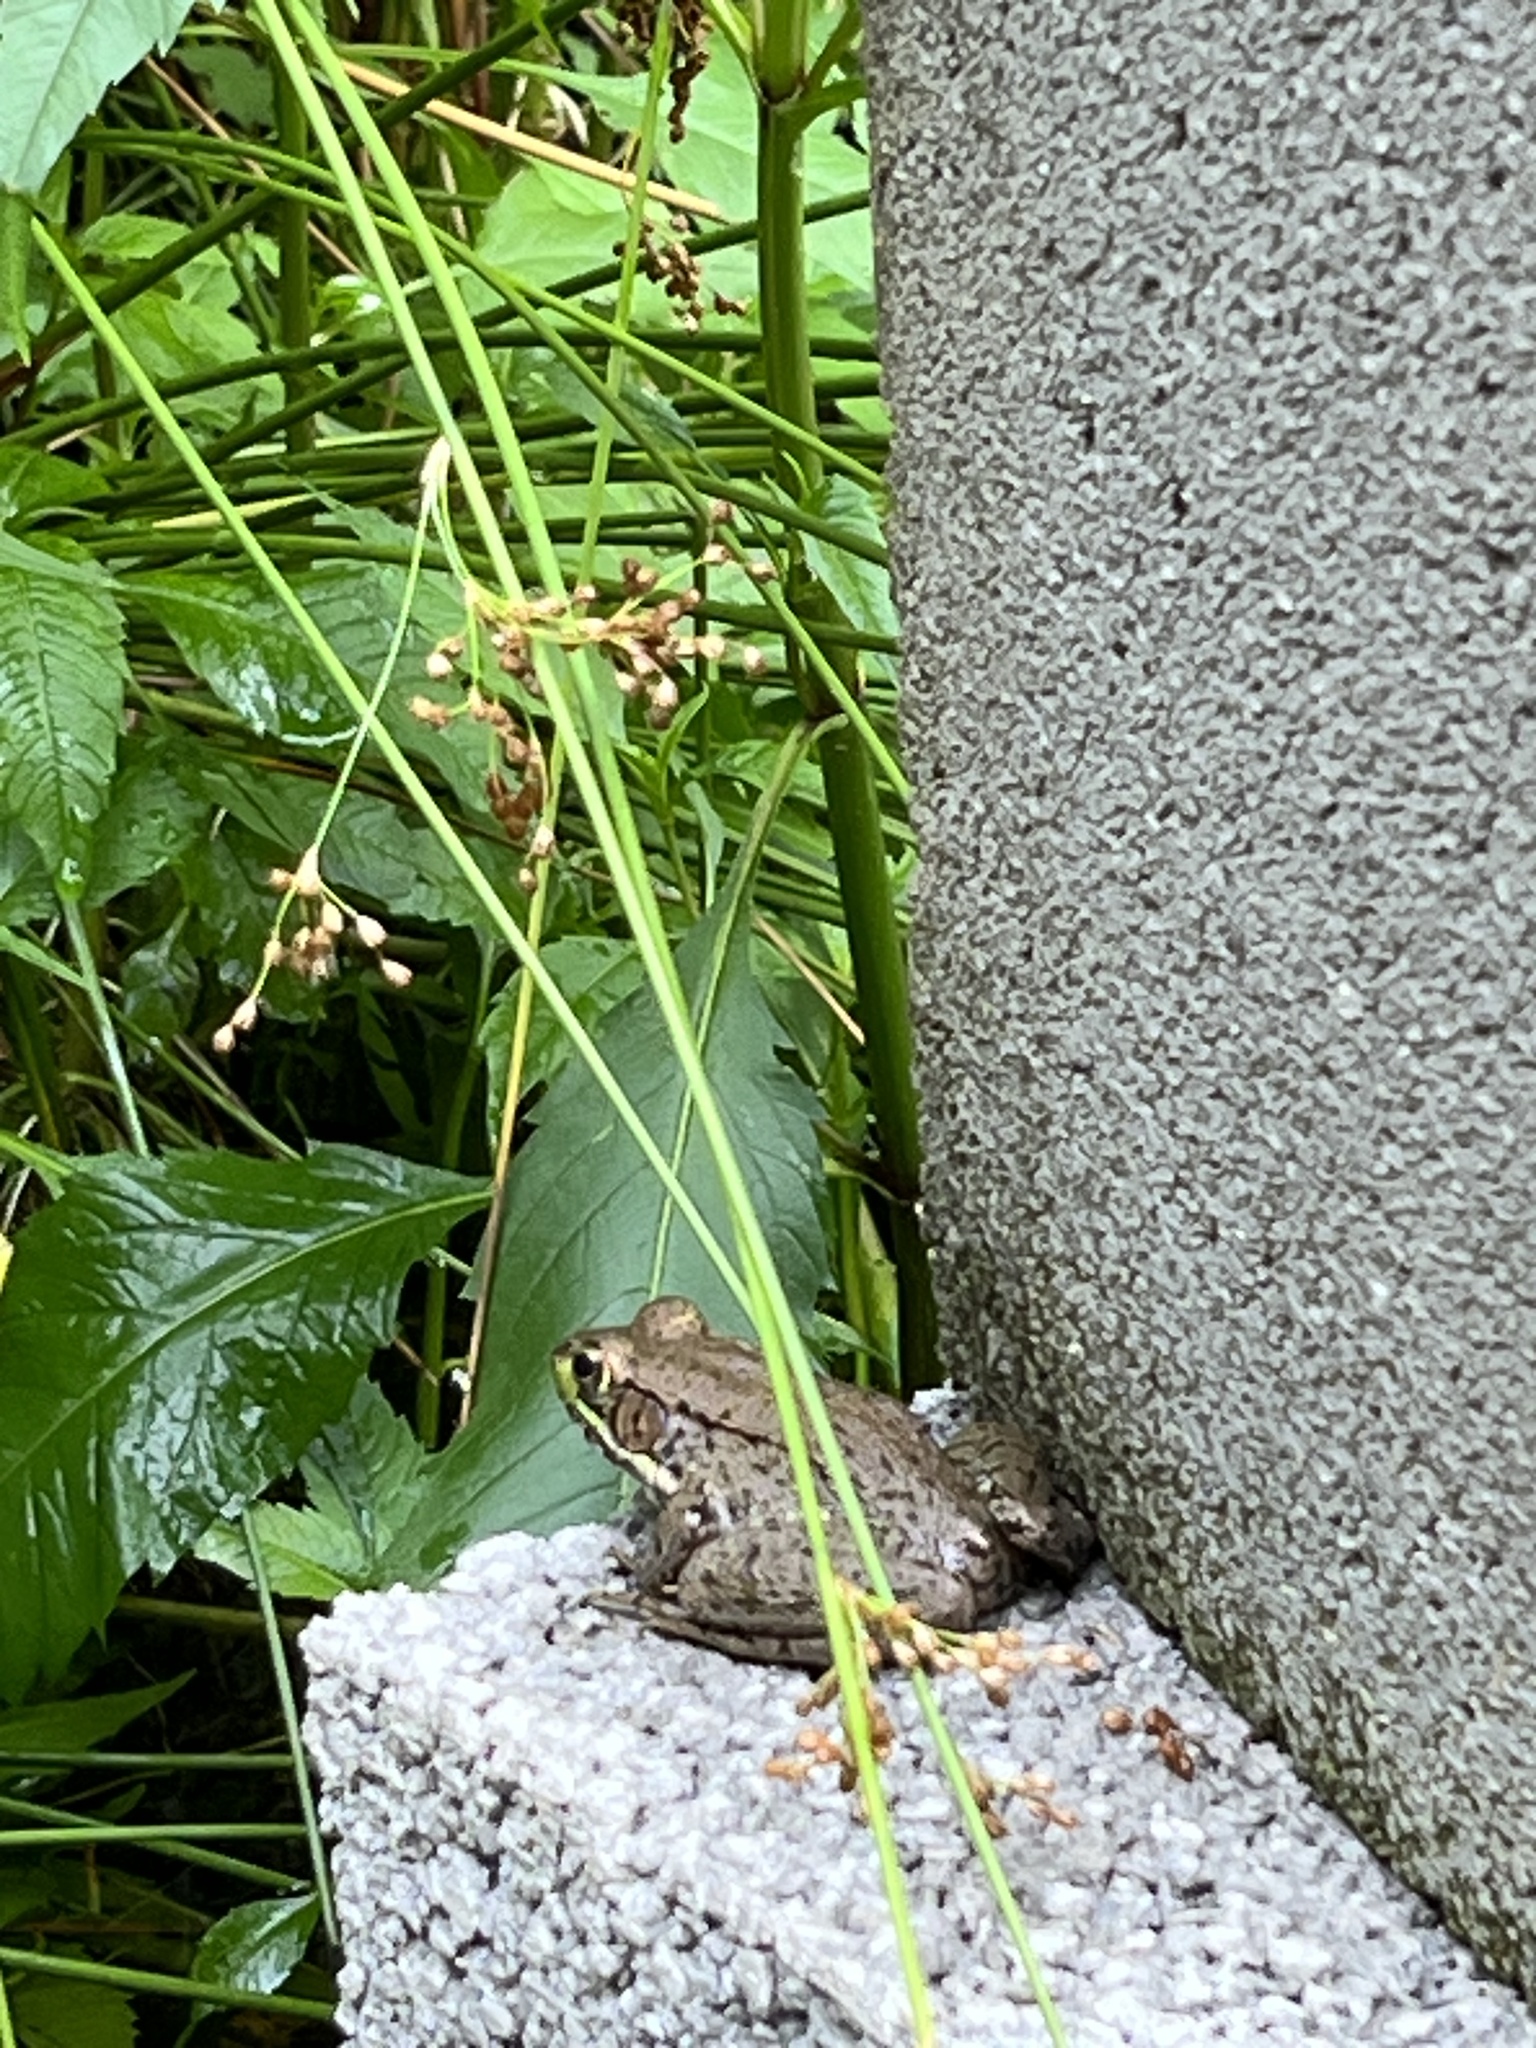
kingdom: Animalia
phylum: Chordata
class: Amphibia
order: Anura
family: Ranidae
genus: Lithobates
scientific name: Lithobates clamitans
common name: Green frog
